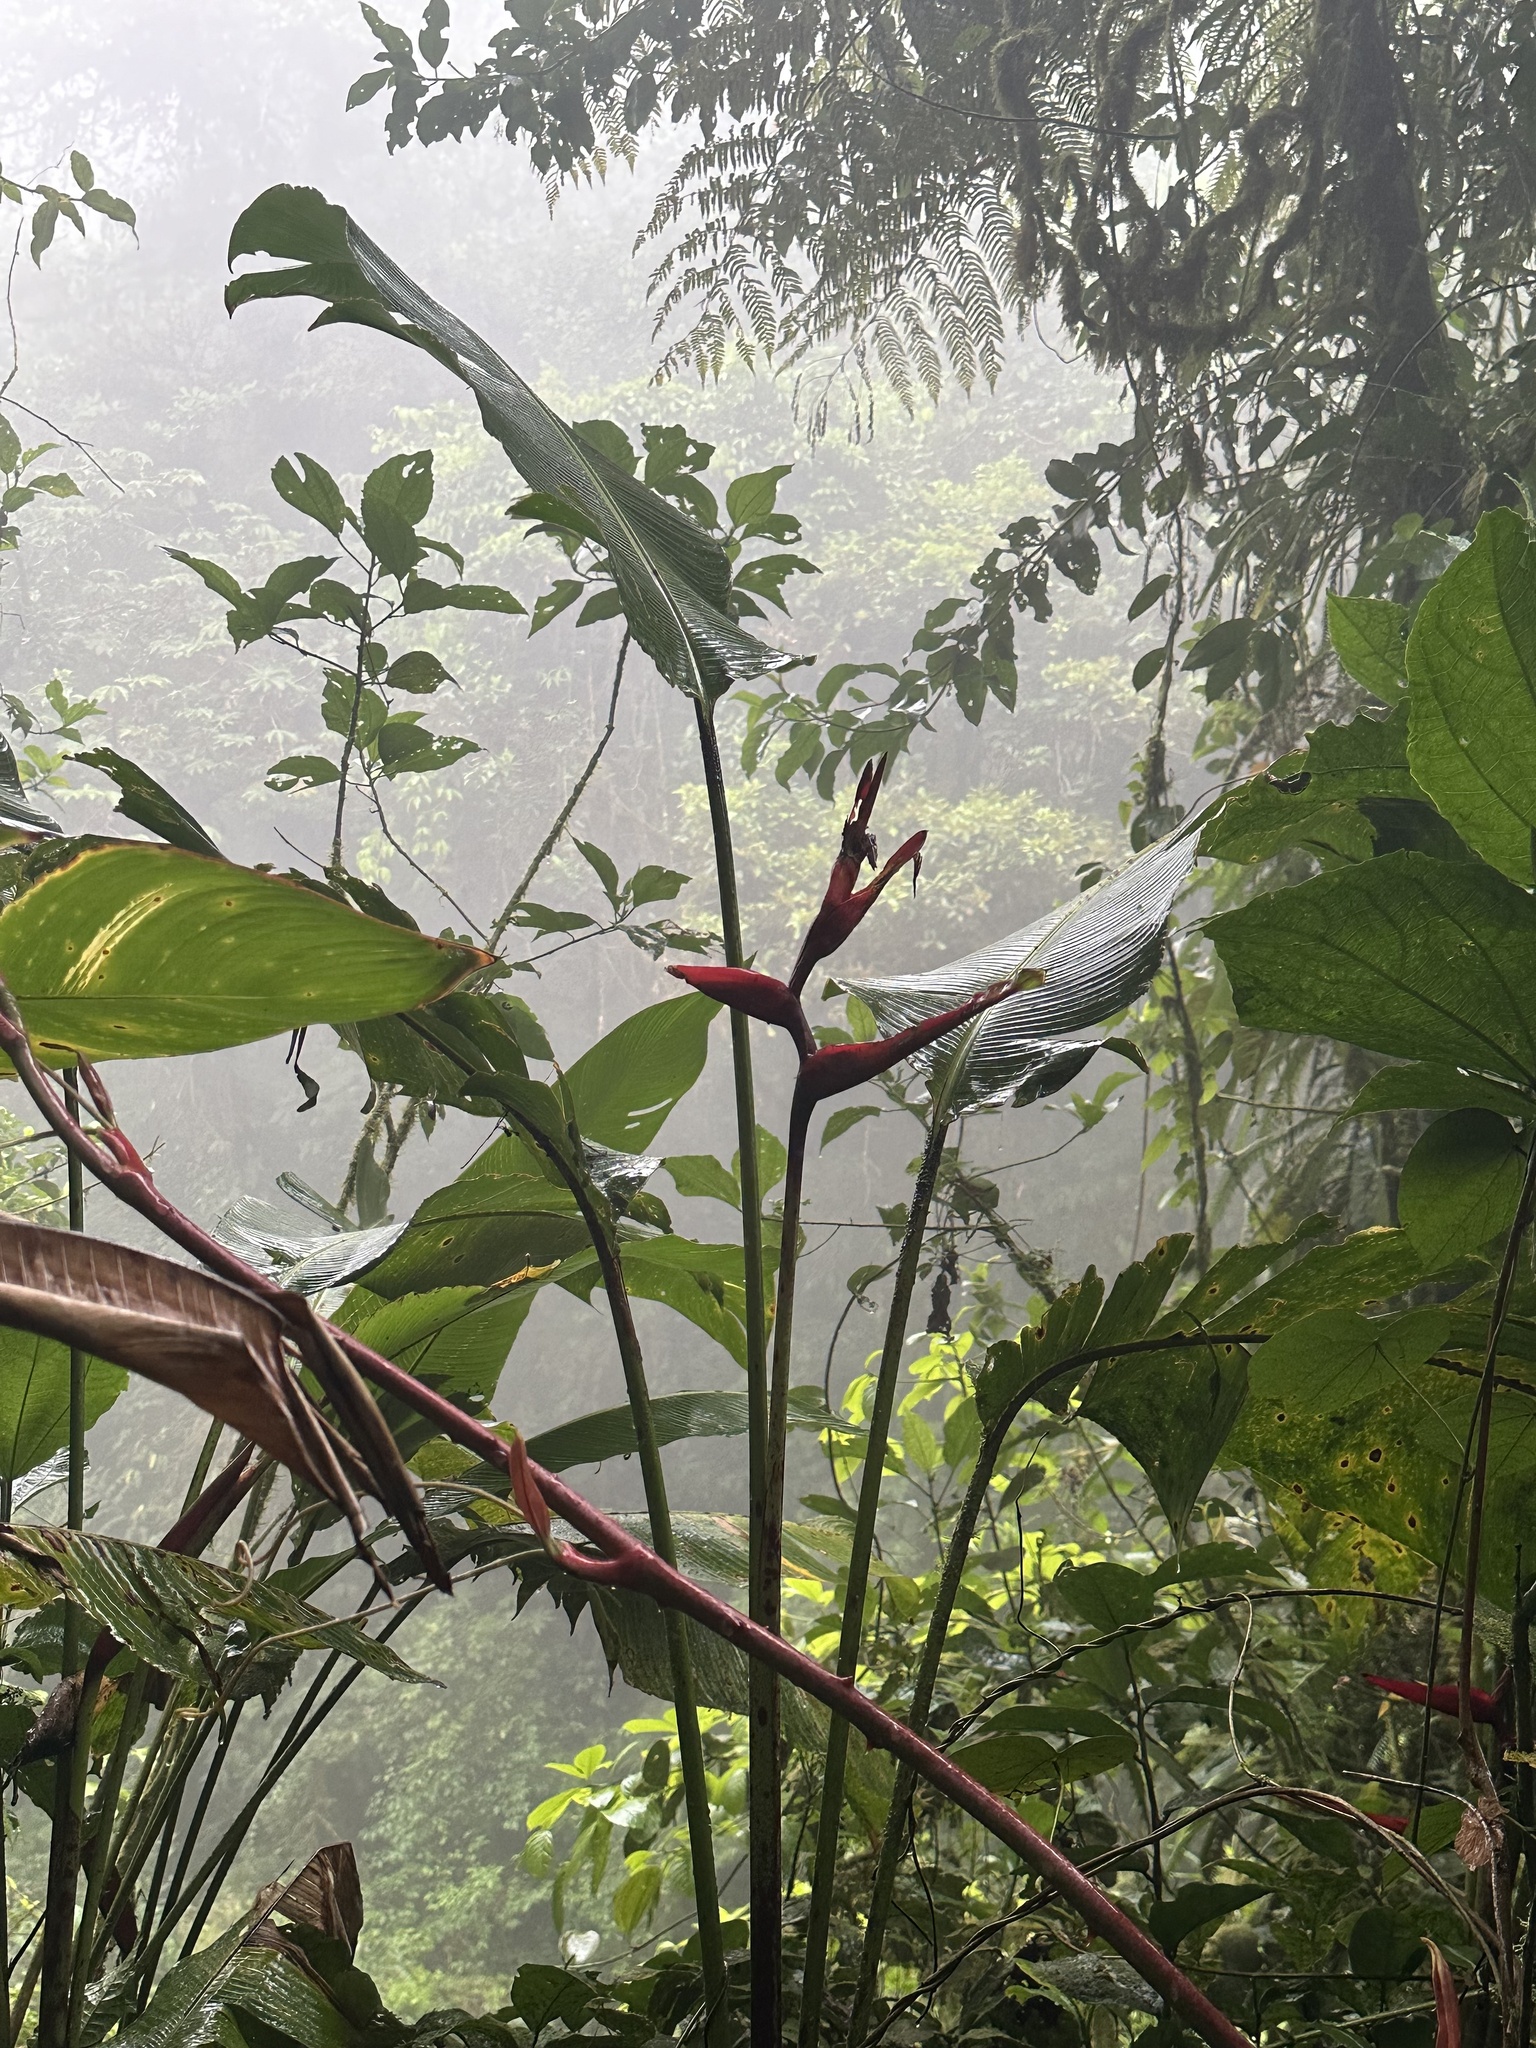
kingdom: Plantae
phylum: Tracheophyta
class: Liliopsida
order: Zingiberales
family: Heliconiaceae
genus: Heliconia
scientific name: Heliconia tortuosa
